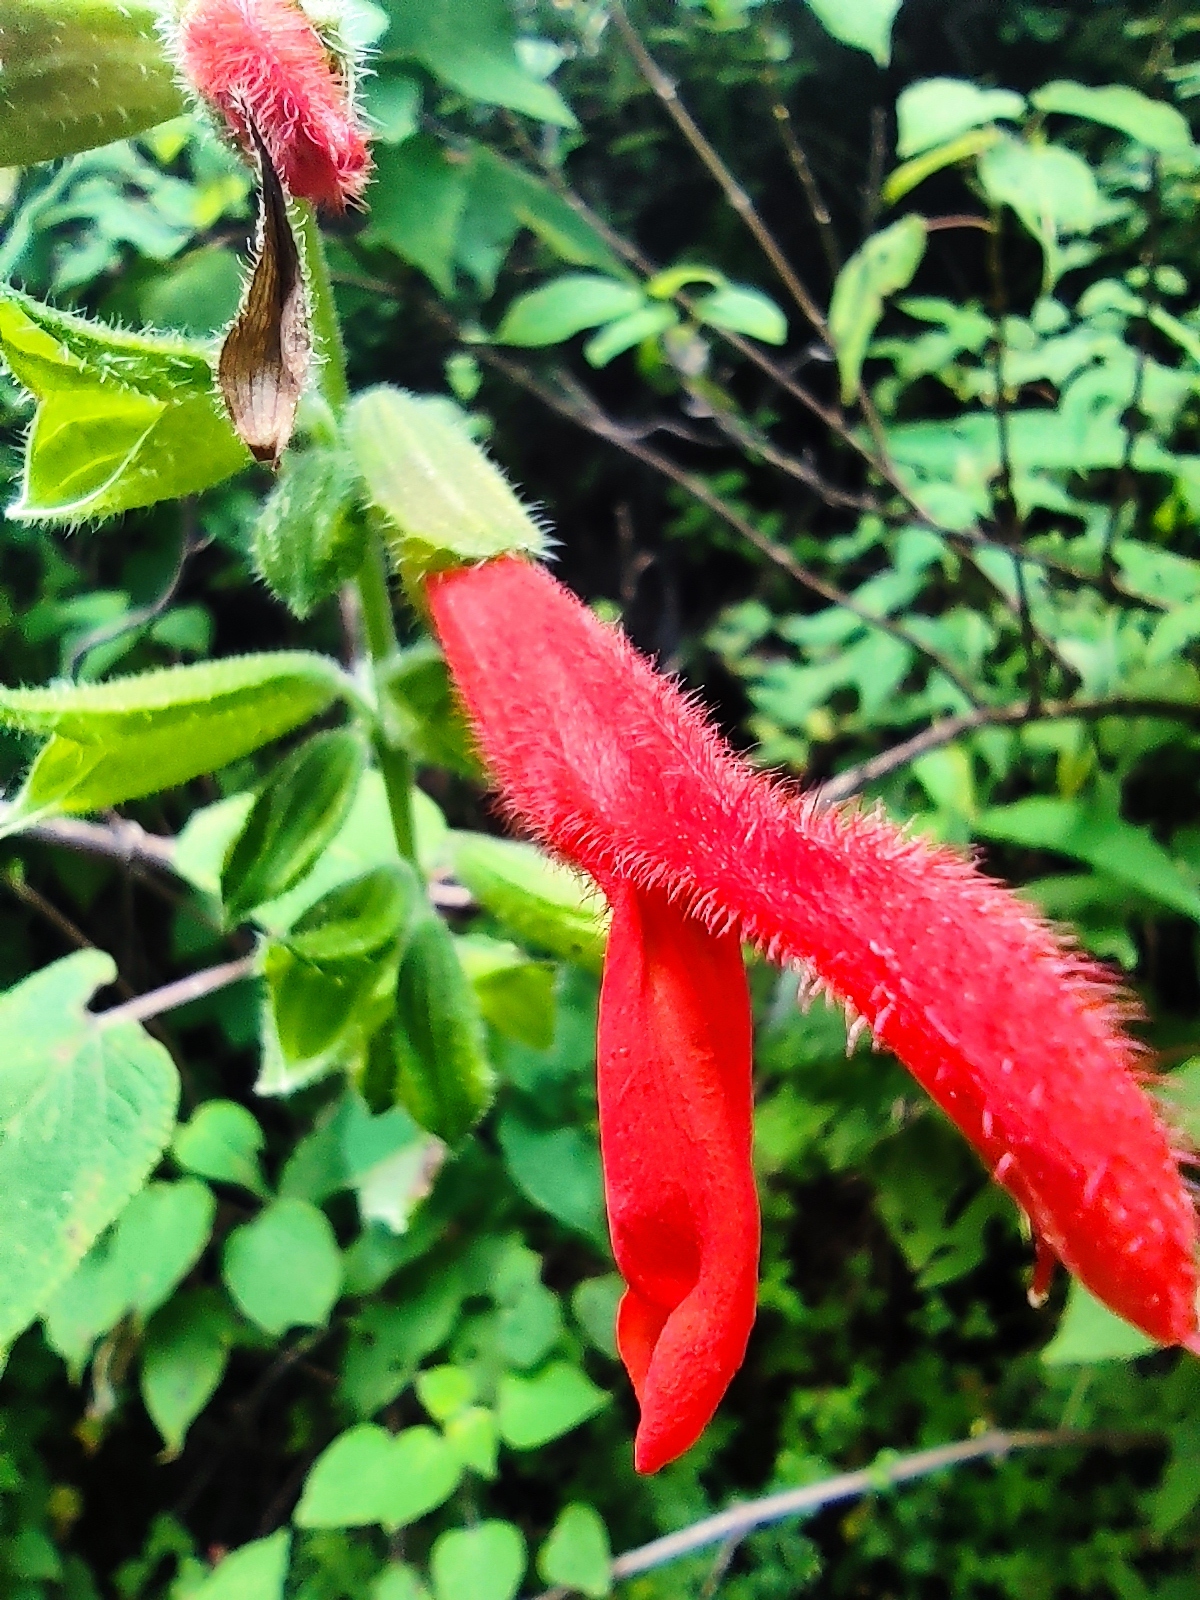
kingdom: Plantae
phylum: Tracheophyta
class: Magnoliopsida
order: Lamiales
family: Lamiaceae
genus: Salvia
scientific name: Salvia gesneriiflora
